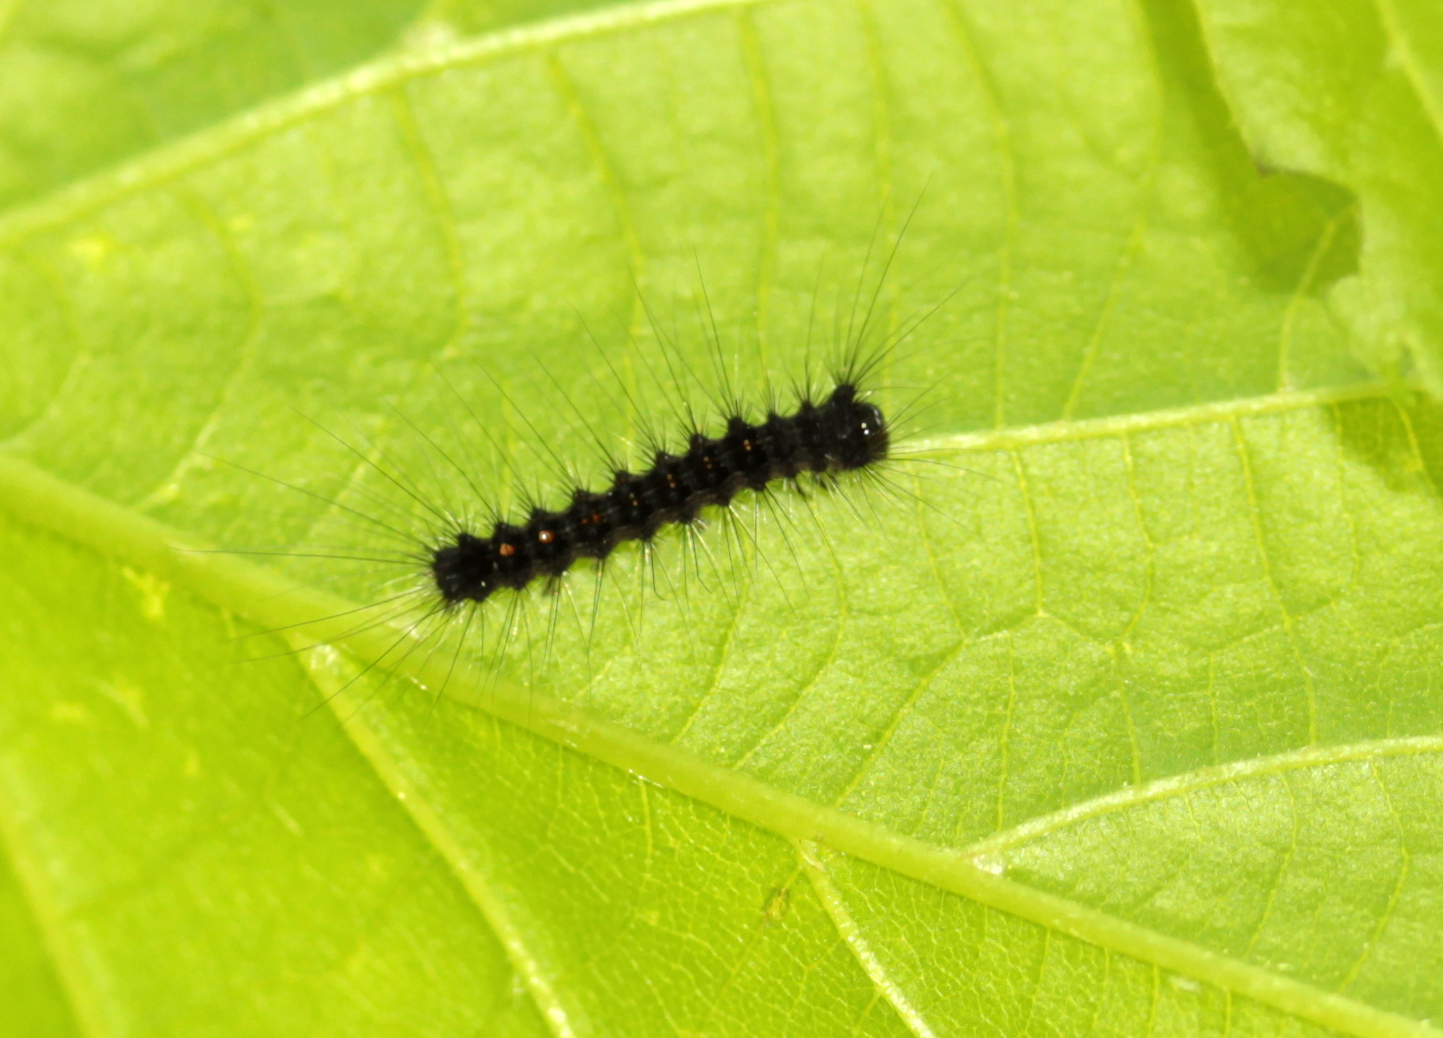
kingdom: Animalia
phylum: Arthropoda
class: Insecta
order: Lepidoptera
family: Erebidae
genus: Lymantria
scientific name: Lymantria dispar
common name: Gypsy moth
